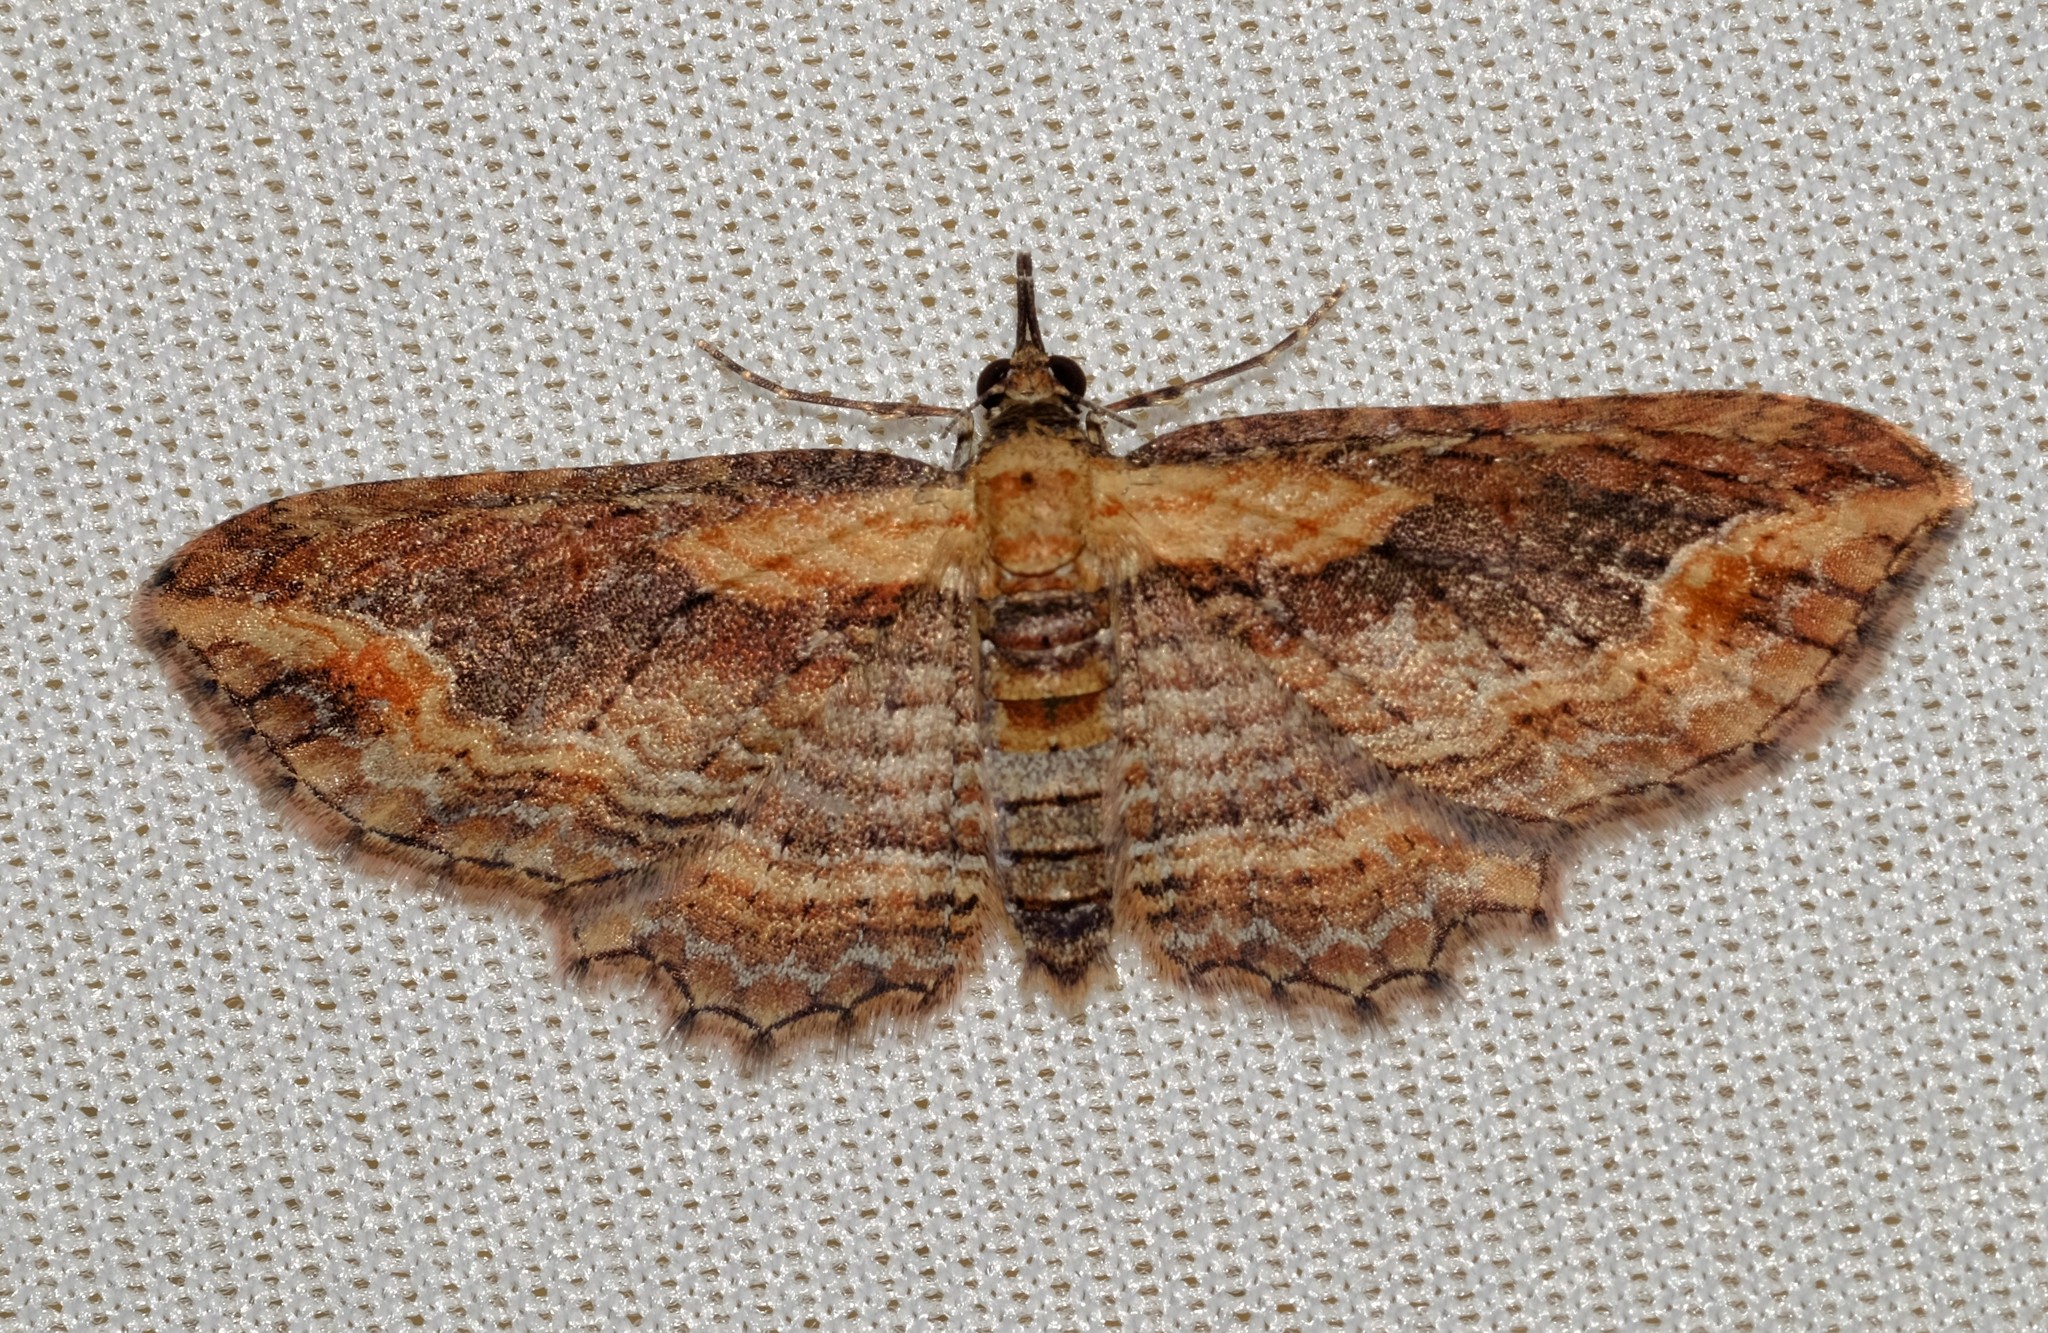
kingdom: Animalia
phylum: Arthropoda
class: Insecta
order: Lepidoptera
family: Geometridae
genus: Chloroclystis
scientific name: Chloroclystis filata
